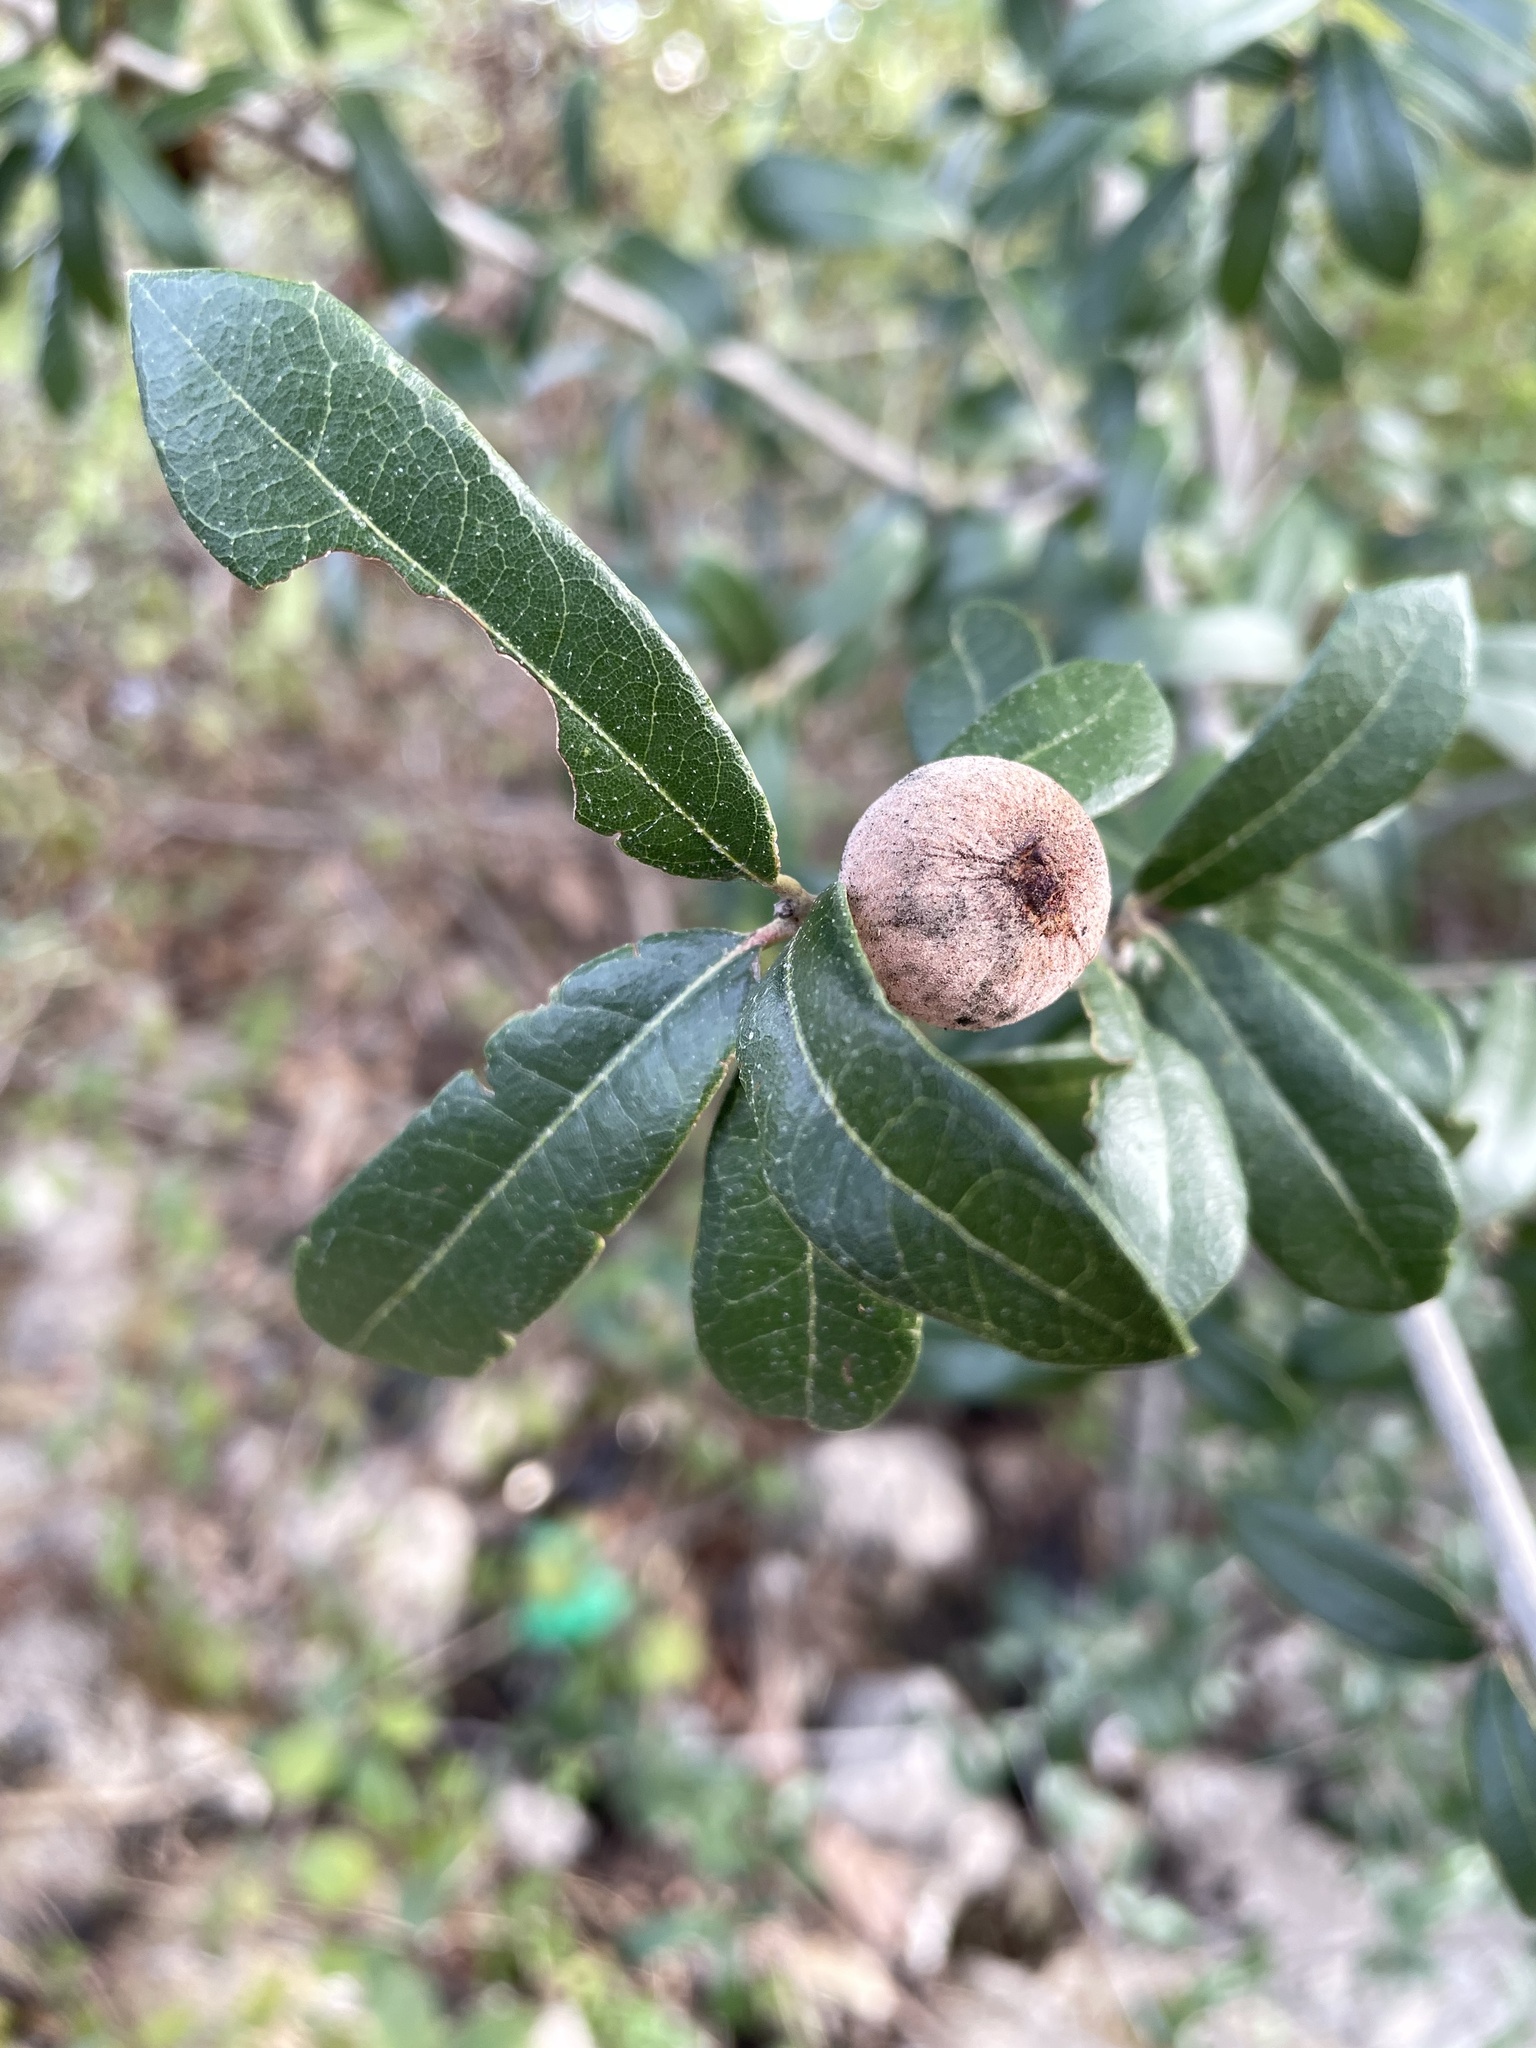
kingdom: Animalia
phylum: Arthropoda
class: Insecta
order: Hymenoptera
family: Cynipidae
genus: Disholcaspis
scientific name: Disholcaspis
